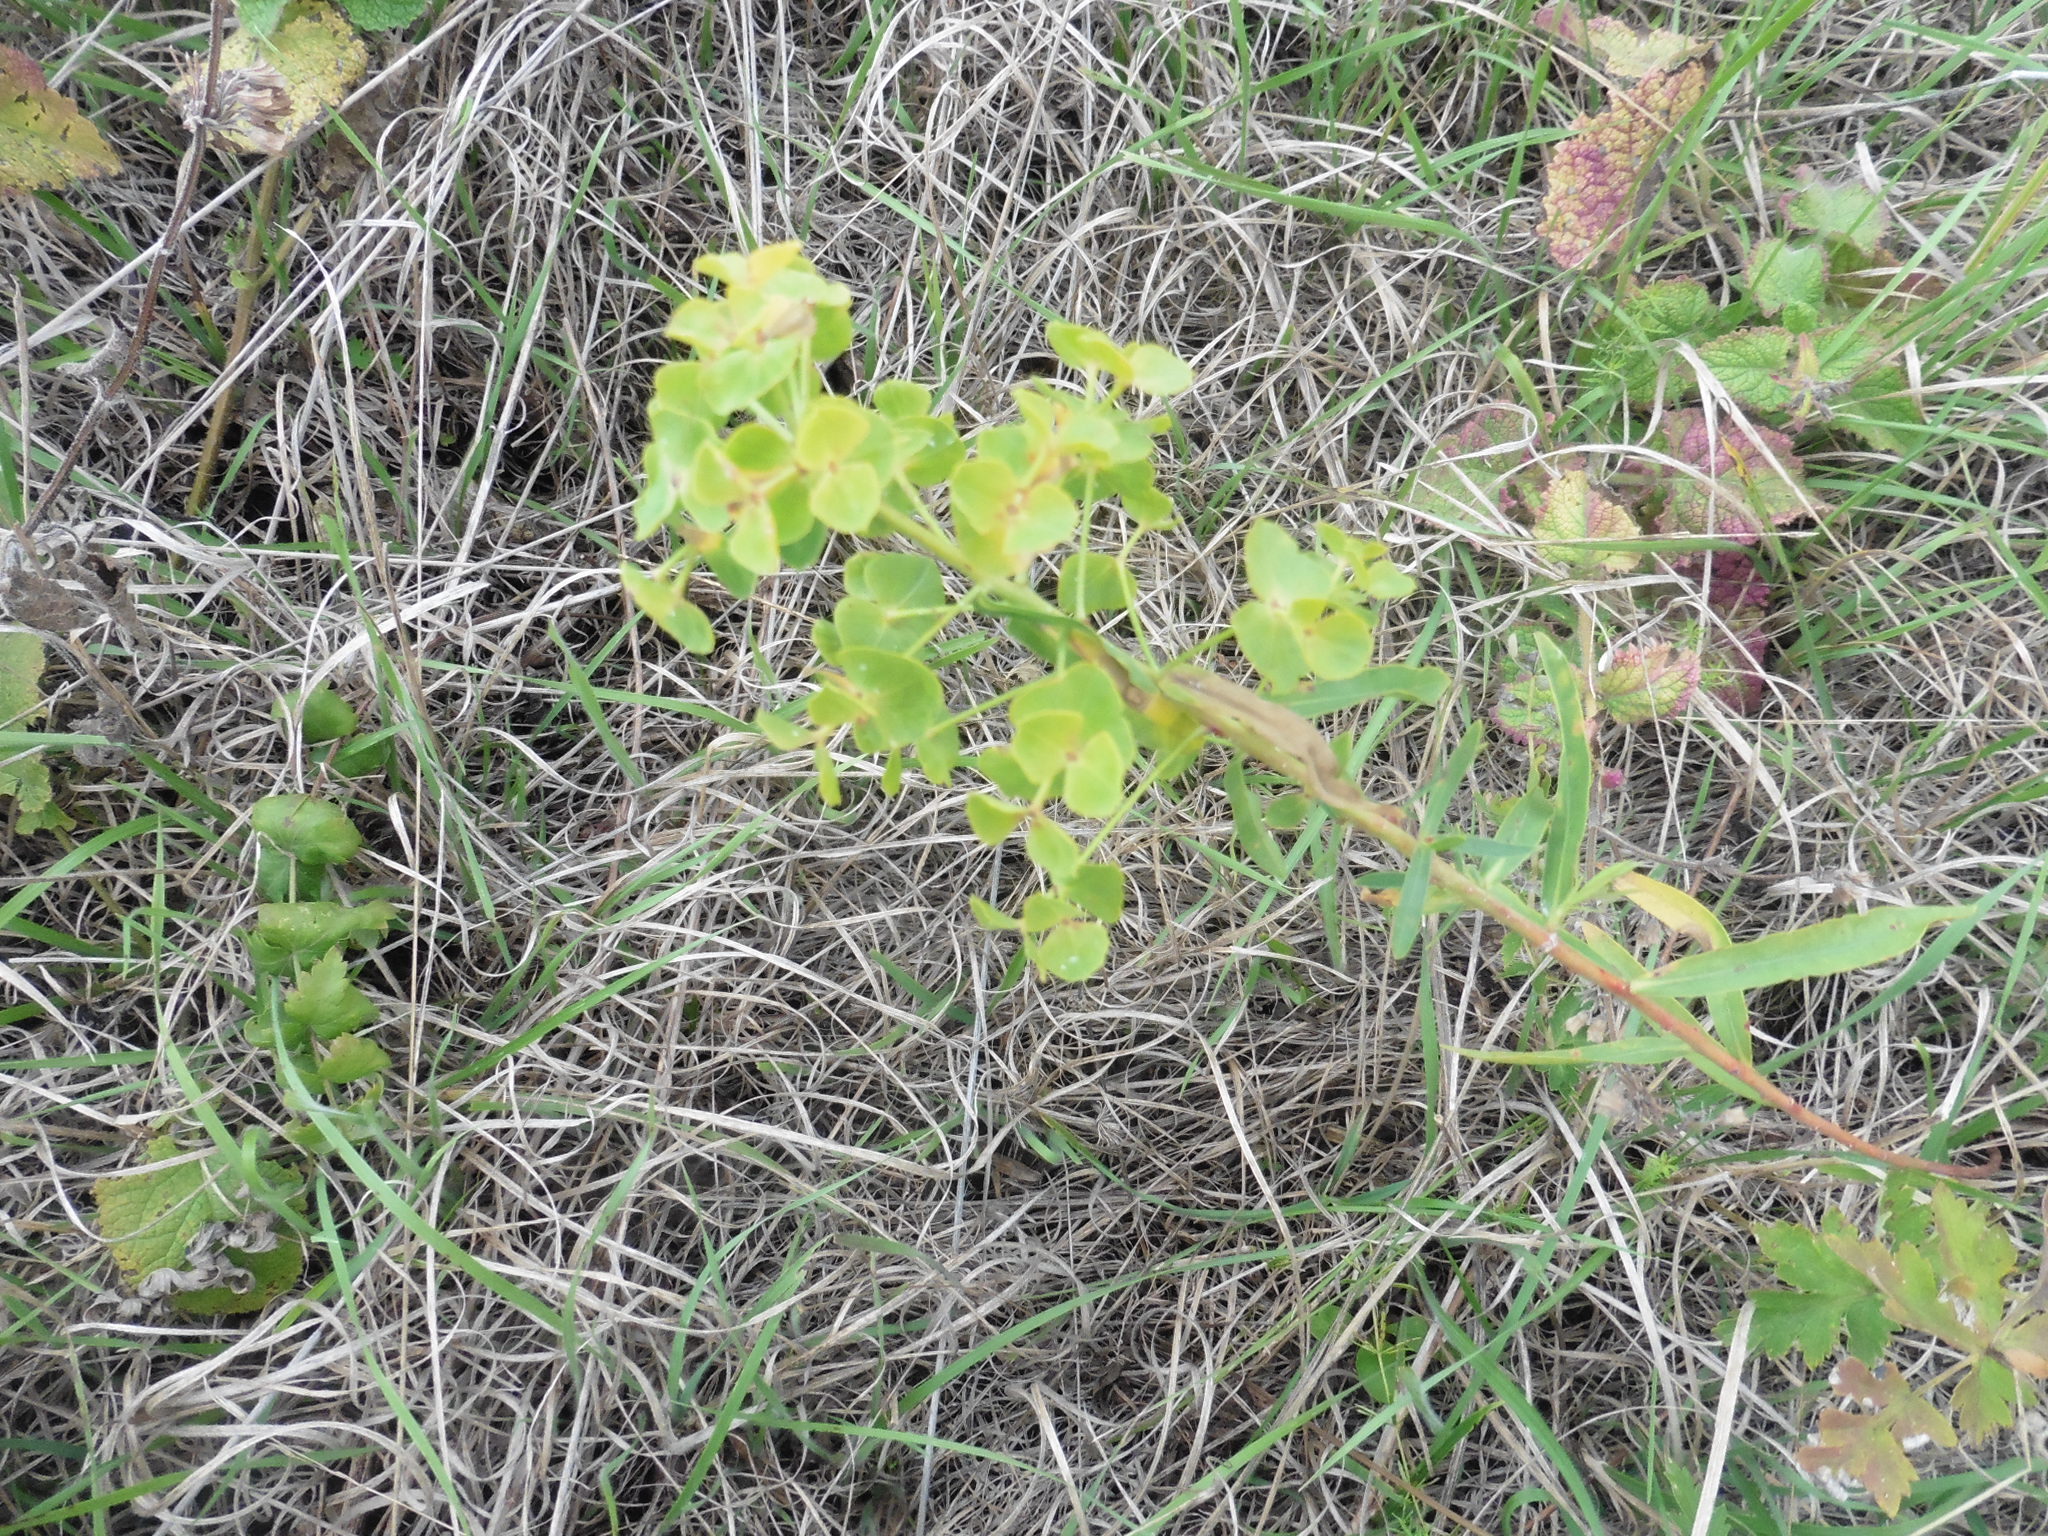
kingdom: Plantae
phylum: Tracheophyta
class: Magnoliopsida
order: Malpighiales
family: Euphorbiaceae
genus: Euphorbia
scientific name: Euphorbia virgata
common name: Leafy spurge
